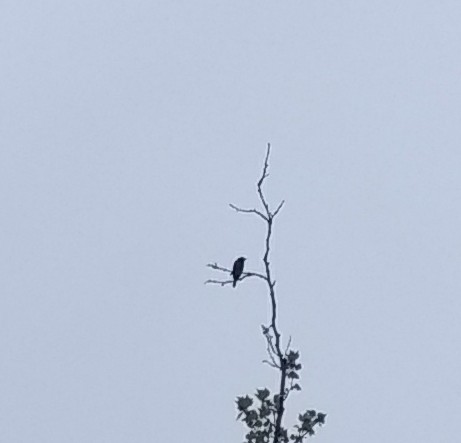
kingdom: Animalia
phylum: Chordata
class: Aves
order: Passeriformes
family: Icteridae
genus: Icterus
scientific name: Icterus galbula
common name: Baltimore oriole
